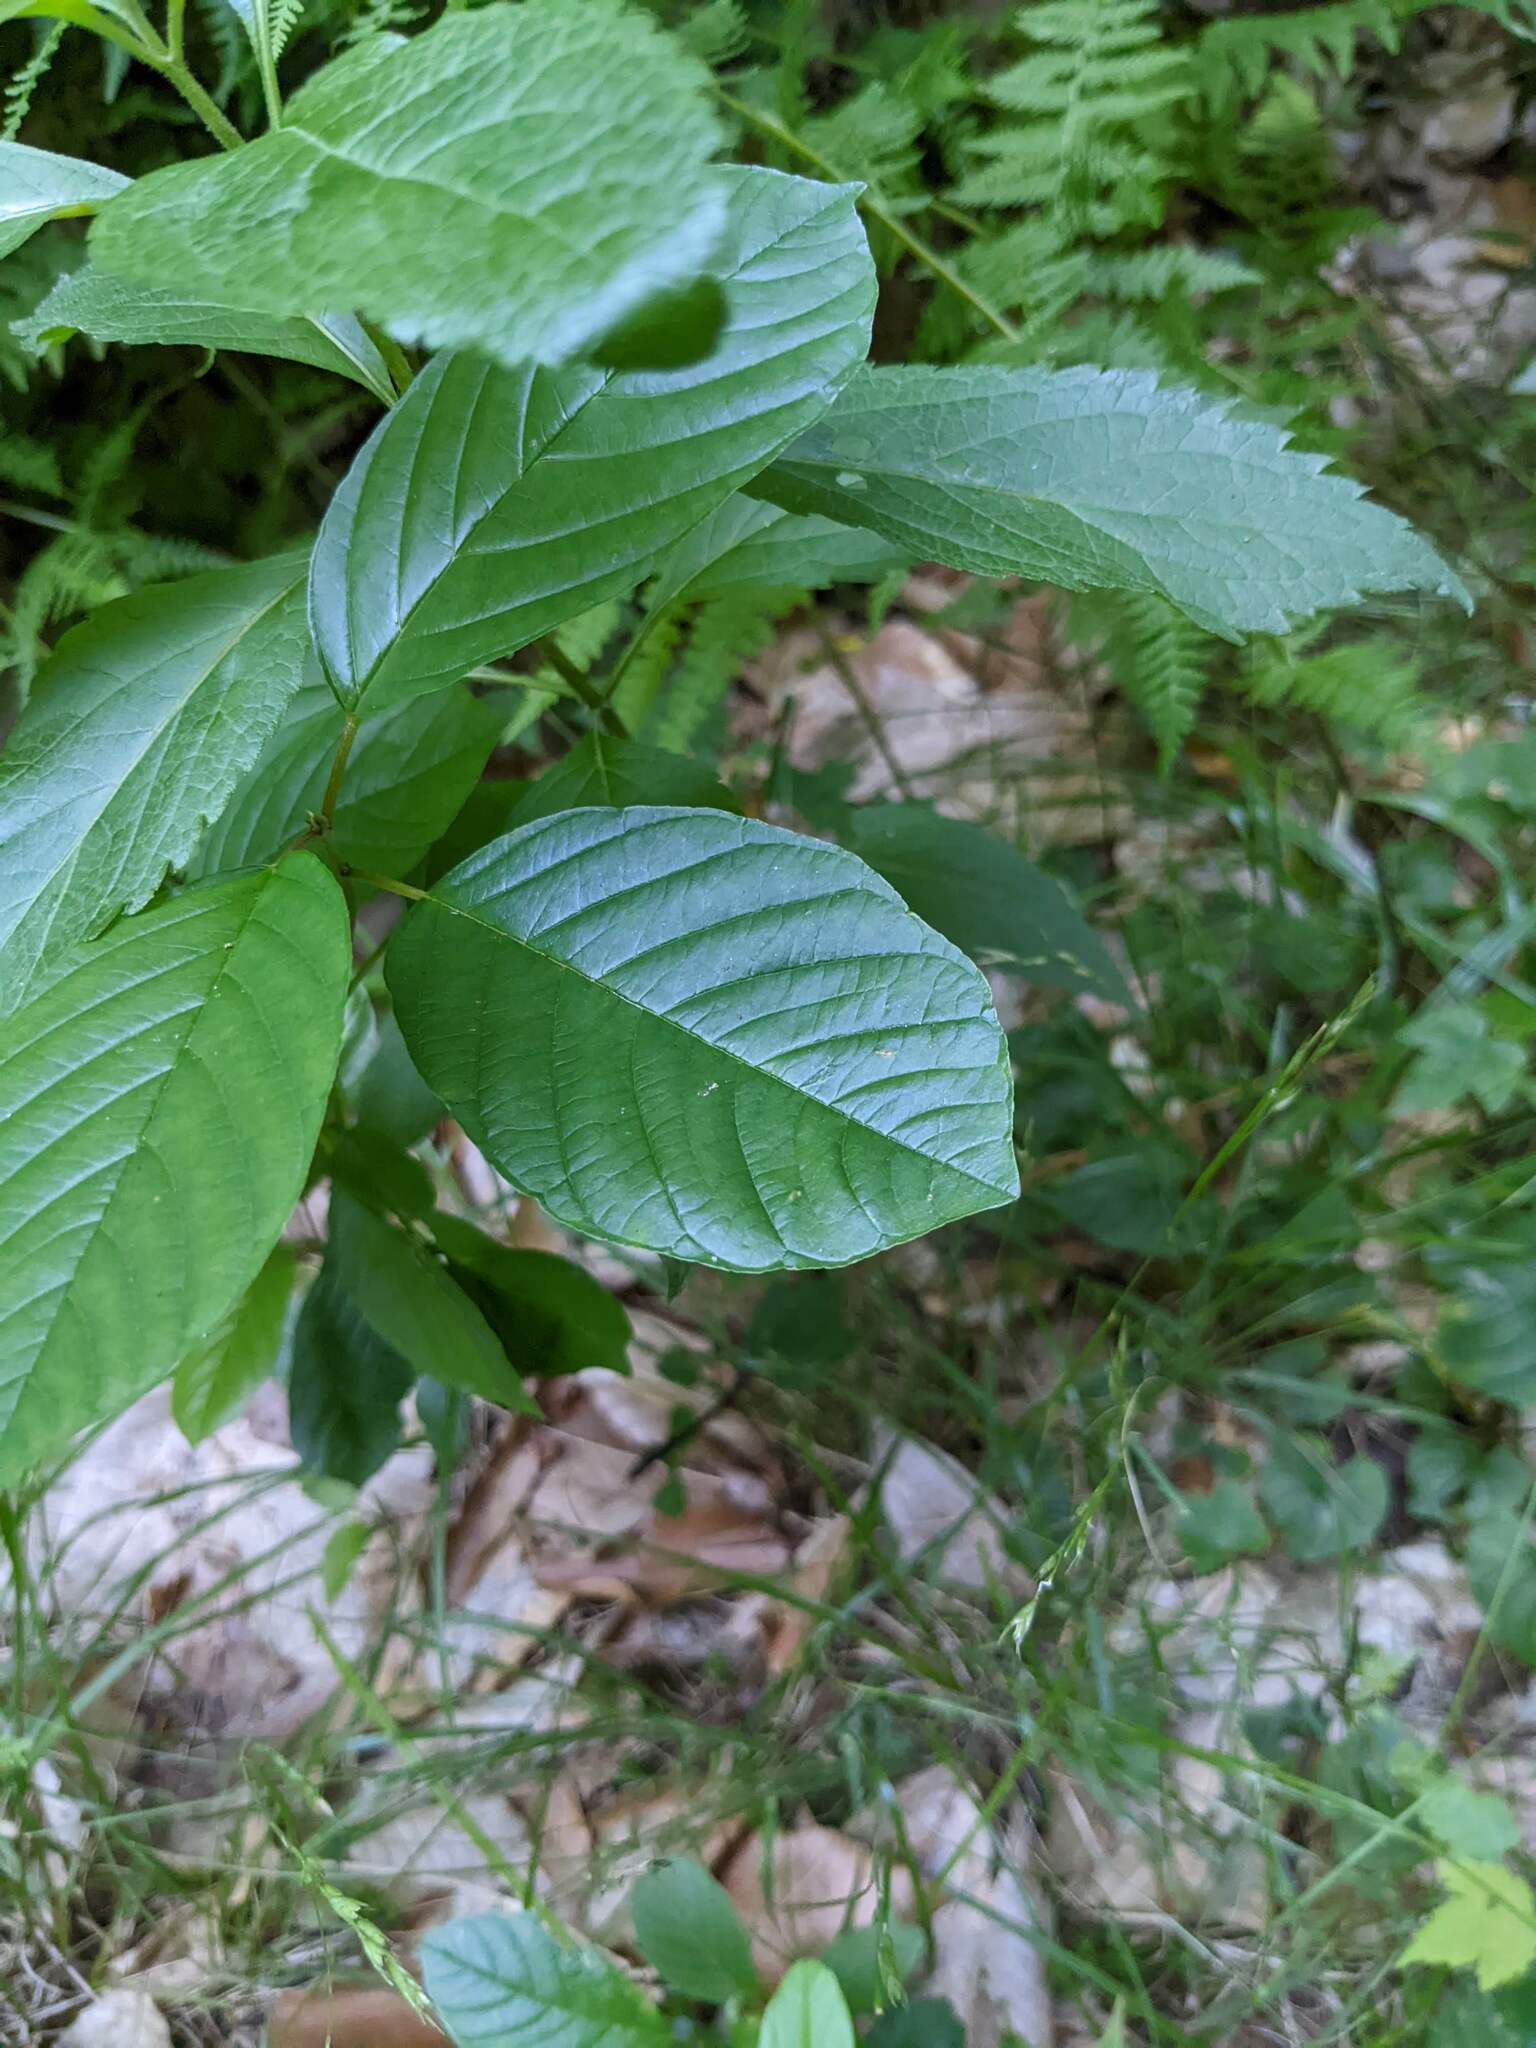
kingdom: Plantae
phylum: Tracheophyta
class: Magnoliopsida
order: Rosales
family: Rhamnaceae
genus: Frangula
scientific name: Frangula alnus
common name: Alder buckthorn
